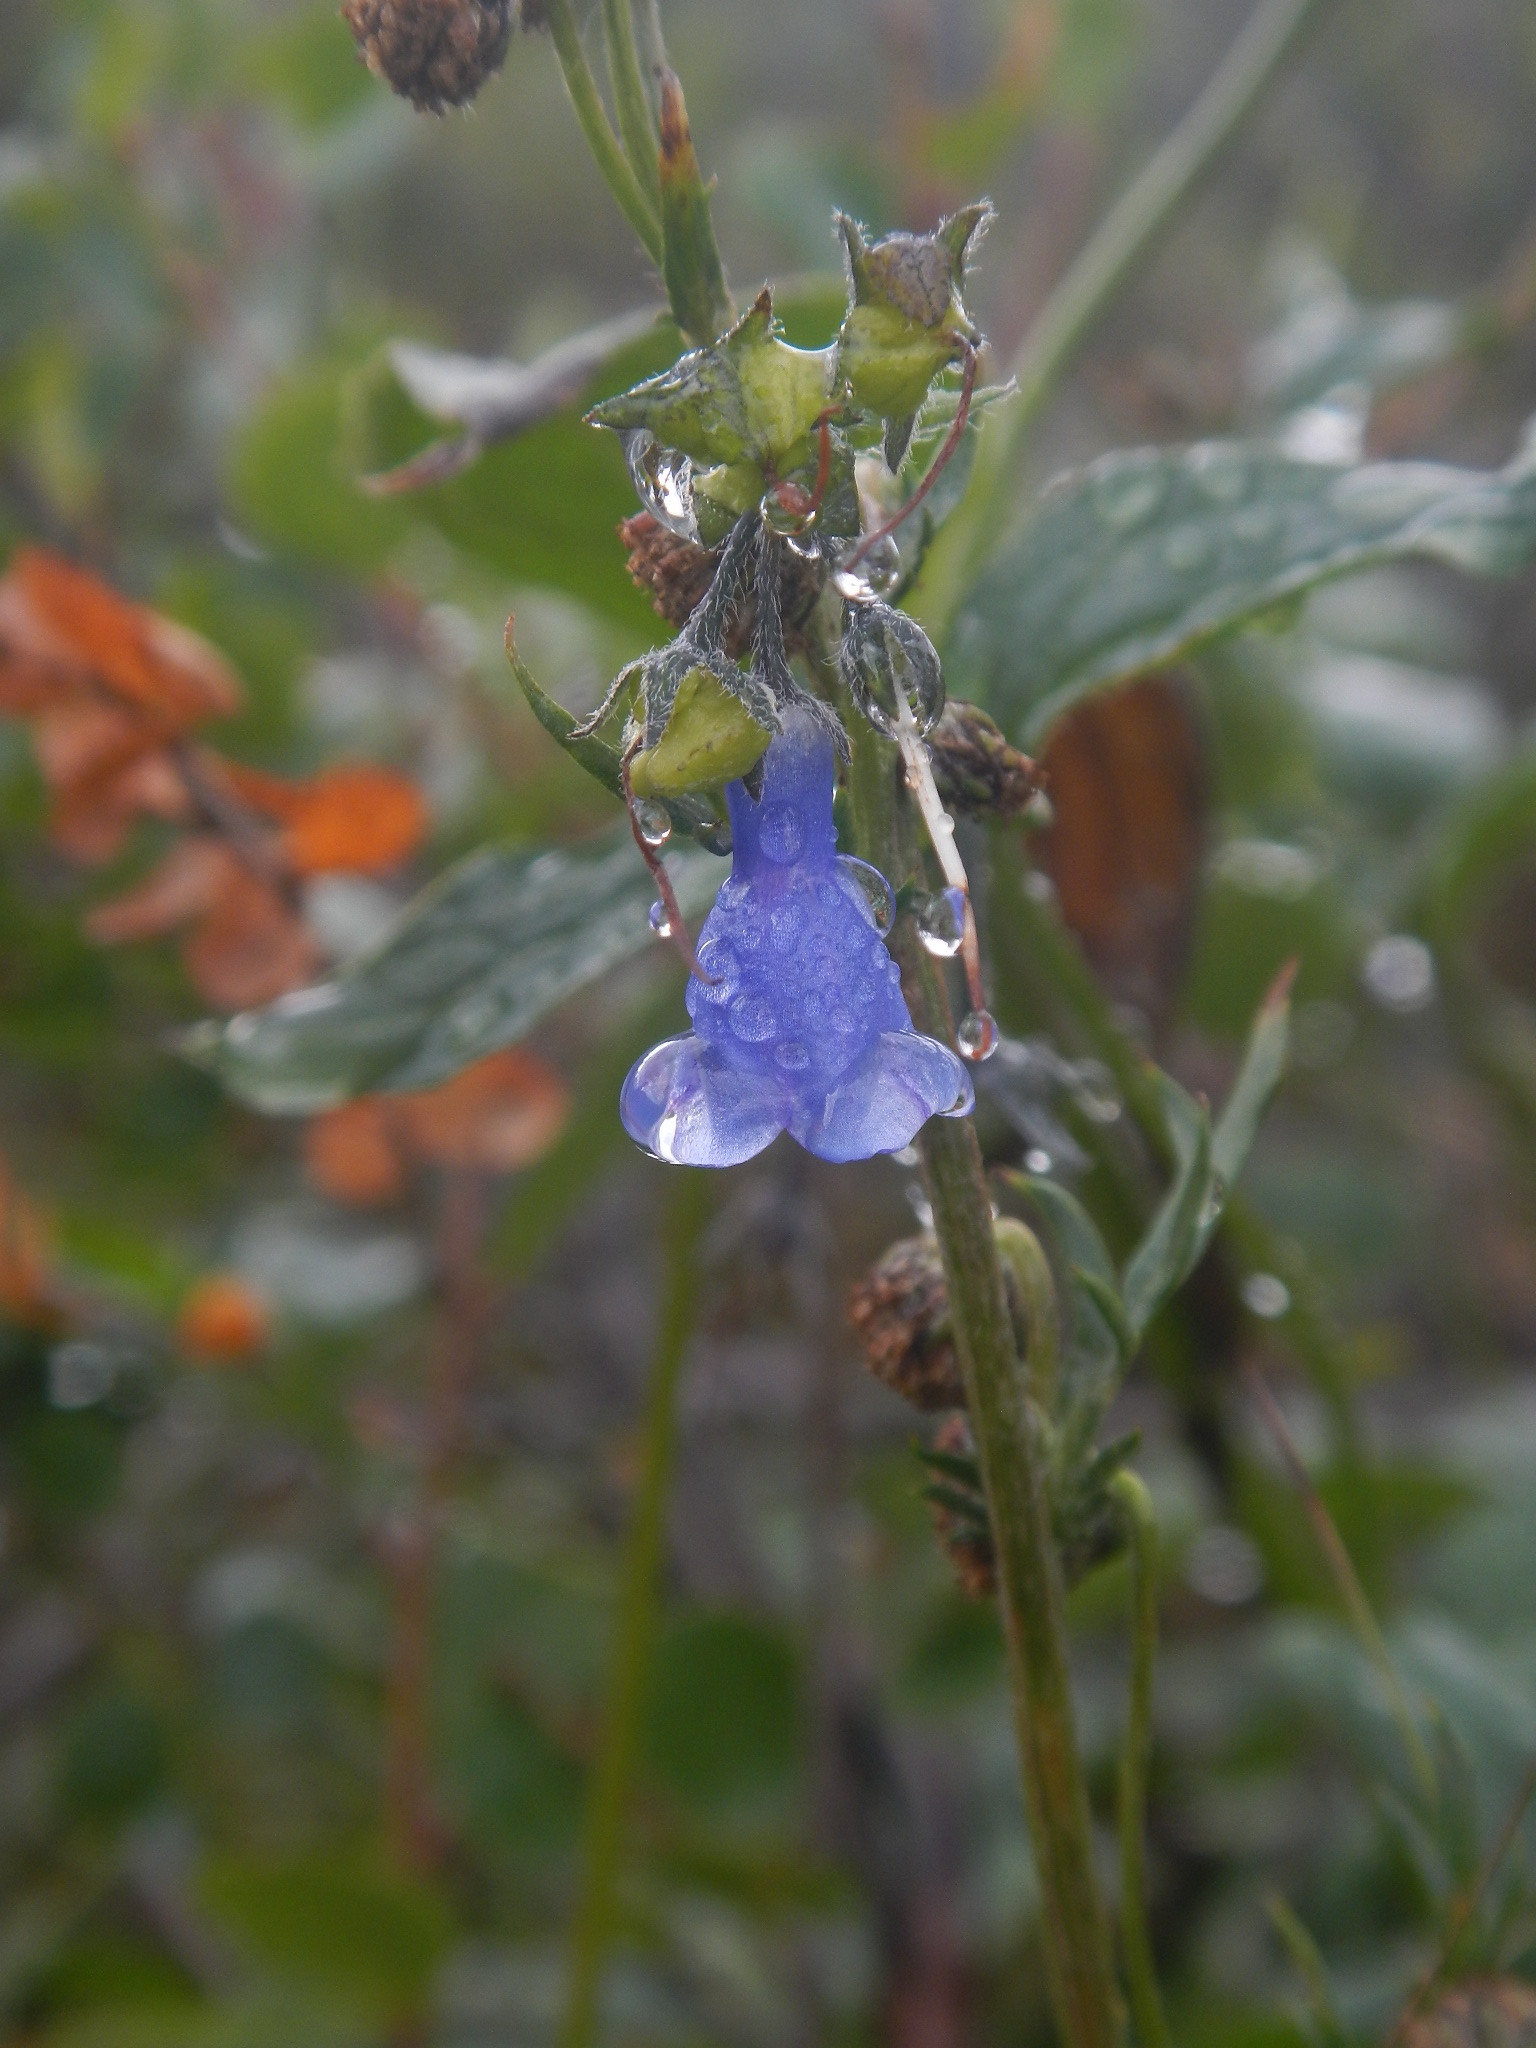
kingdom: Plantae
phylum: Tracheophyta
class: Magnoliopsida
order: Boraginales
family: Boraginaceae
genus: Mertensia
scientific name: Mertensia paniculata
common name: Panicled bluebells
